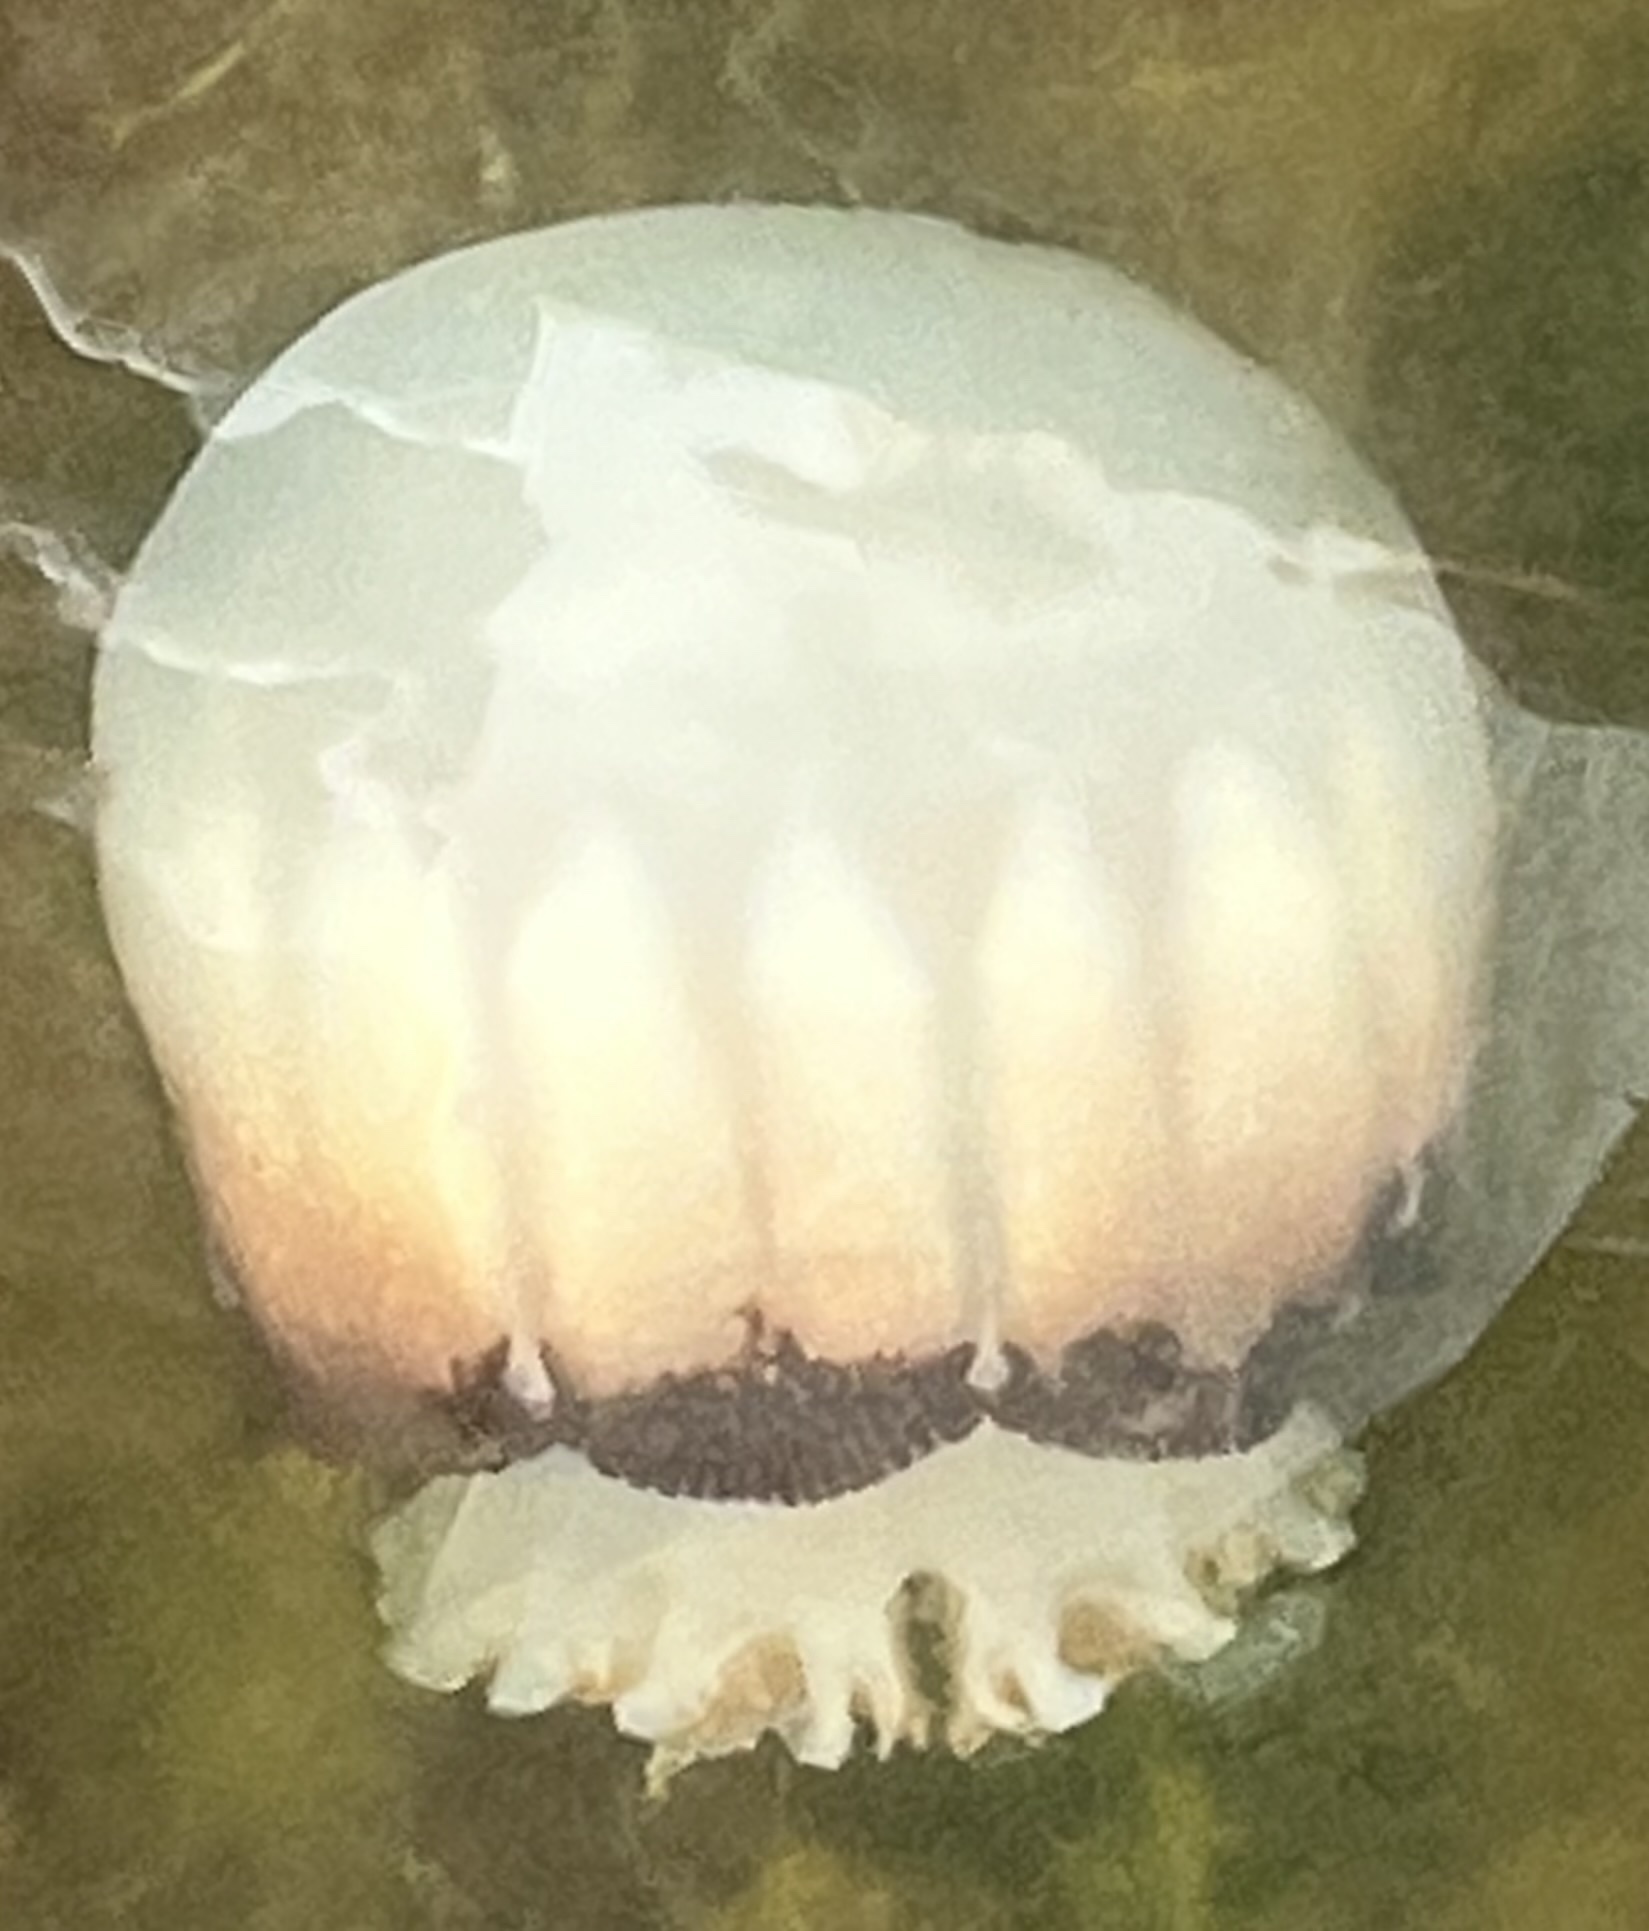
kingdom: Animalia
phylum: Cnidaria
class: Scyphozoa
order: Rhizostomeae
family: Stomolophidae
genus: Stomolophus
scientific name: Stomolophus meleagris
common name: Cabbagehead
